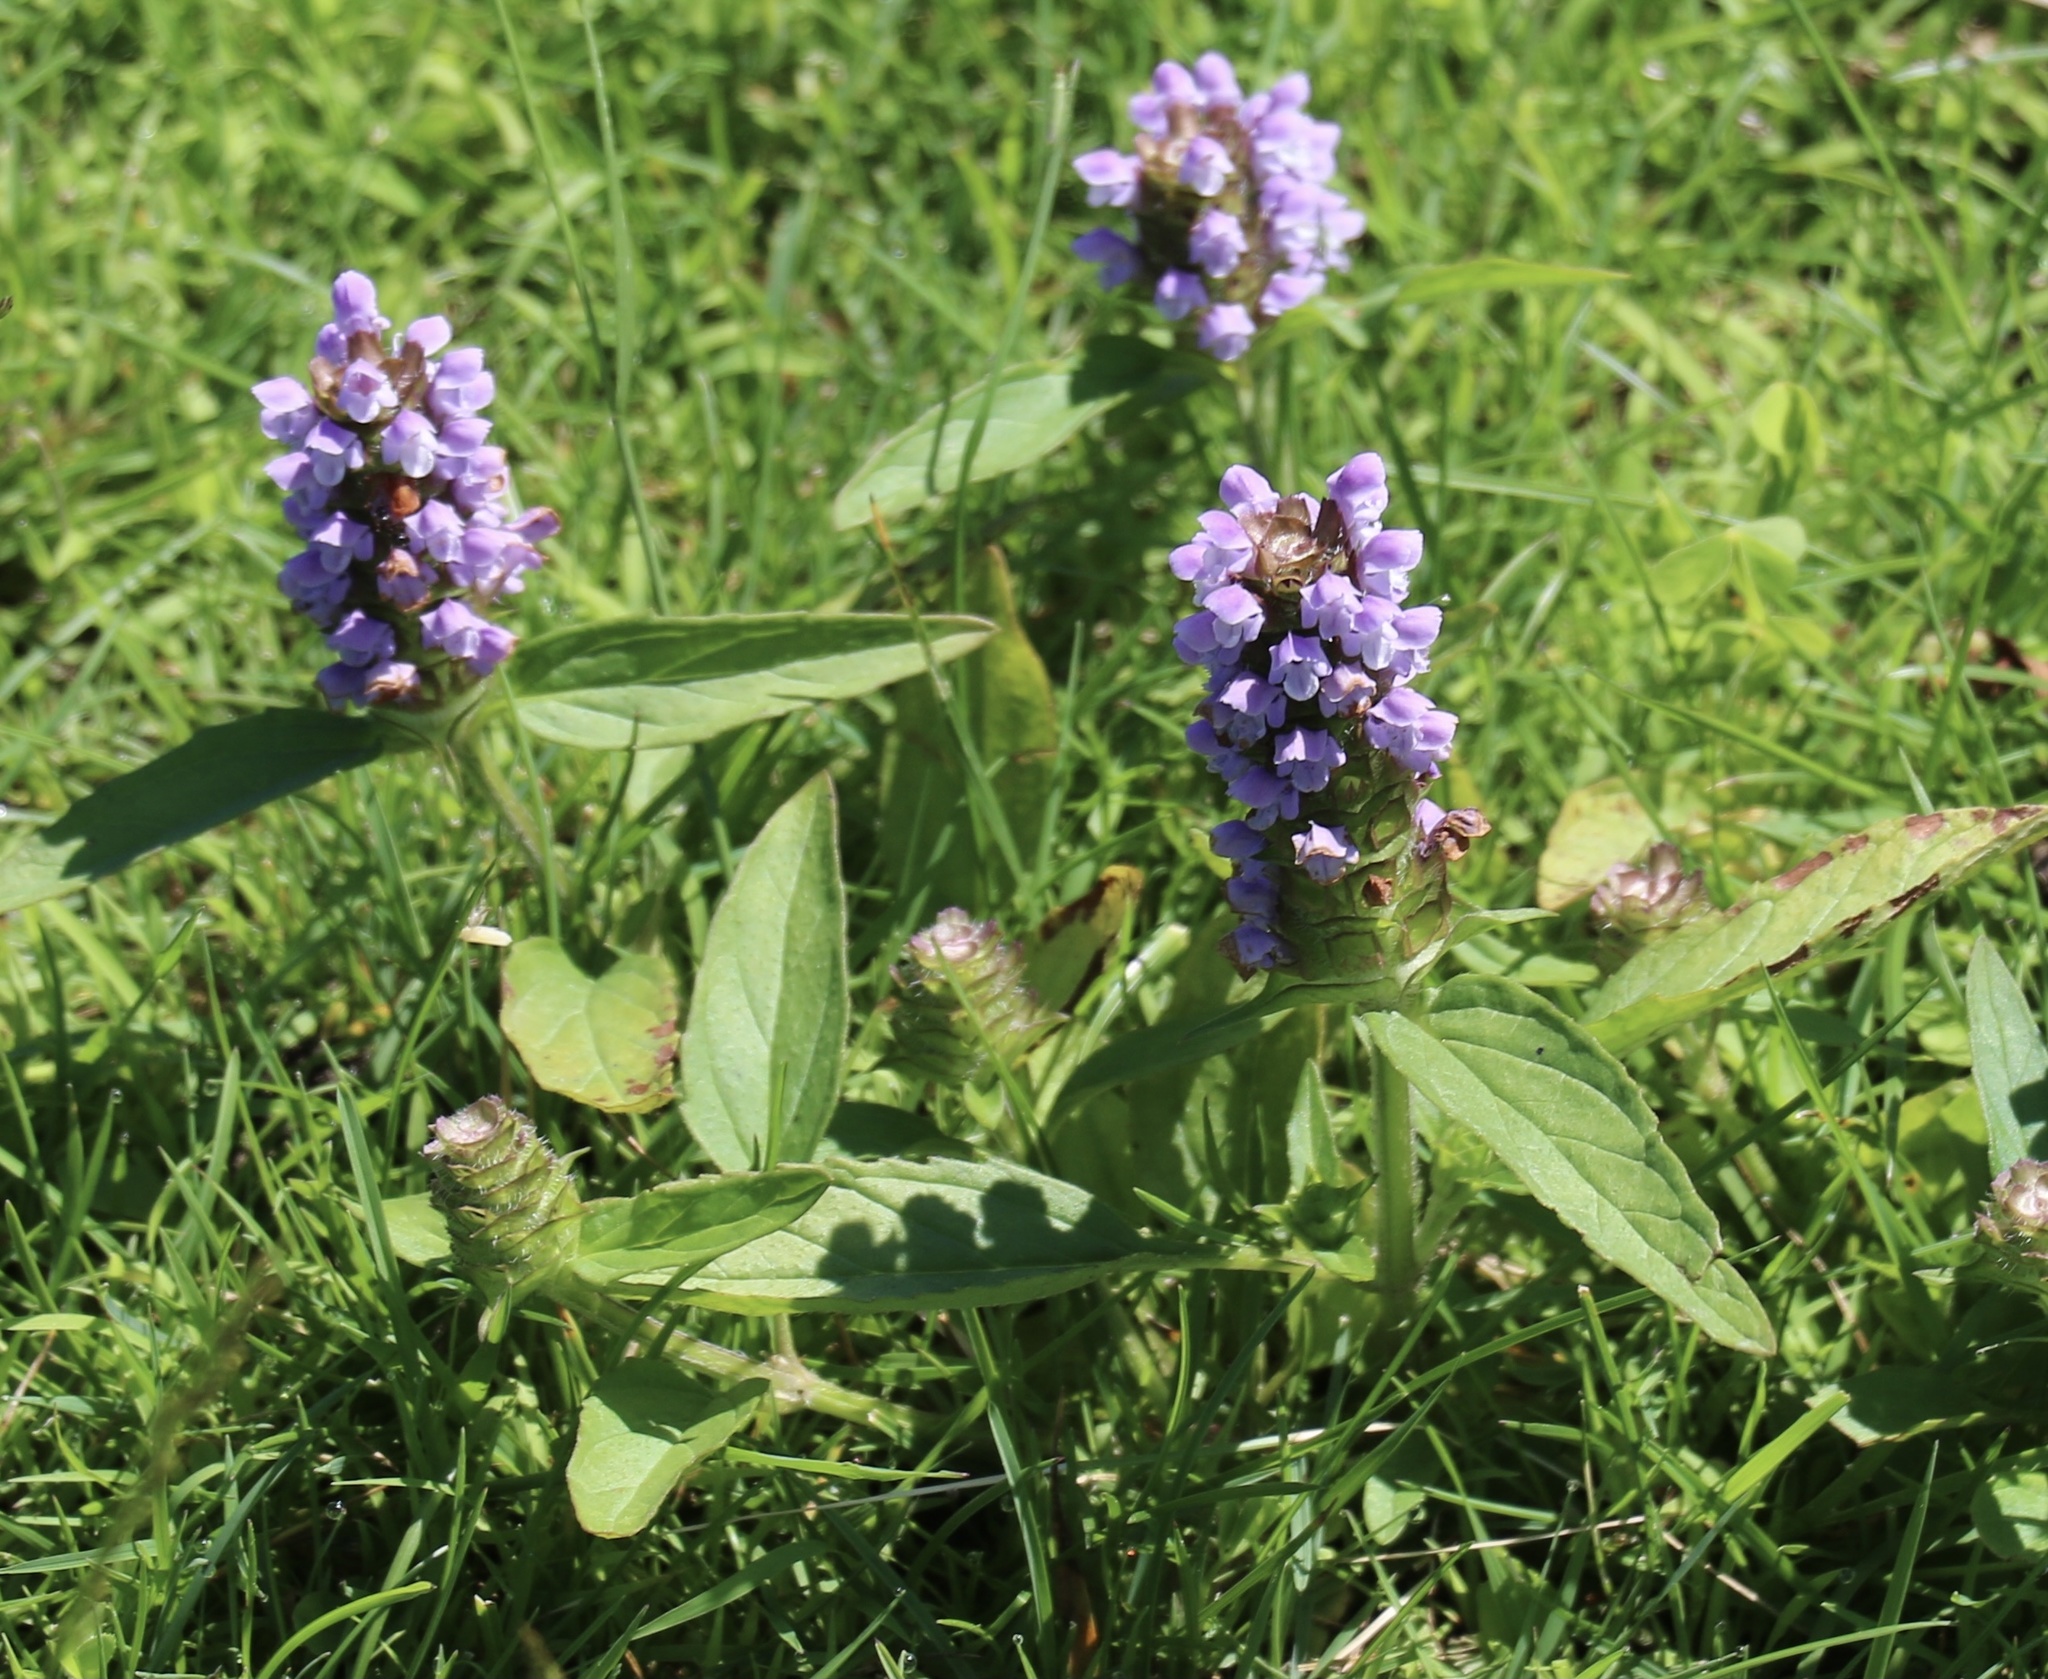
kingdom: Plantae
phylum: Tracheophyta
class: Magnoliopsida
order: Lamiales
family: Lamiaceae
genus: Prunella
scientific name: Prunella vulgaris
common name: Heal-all
